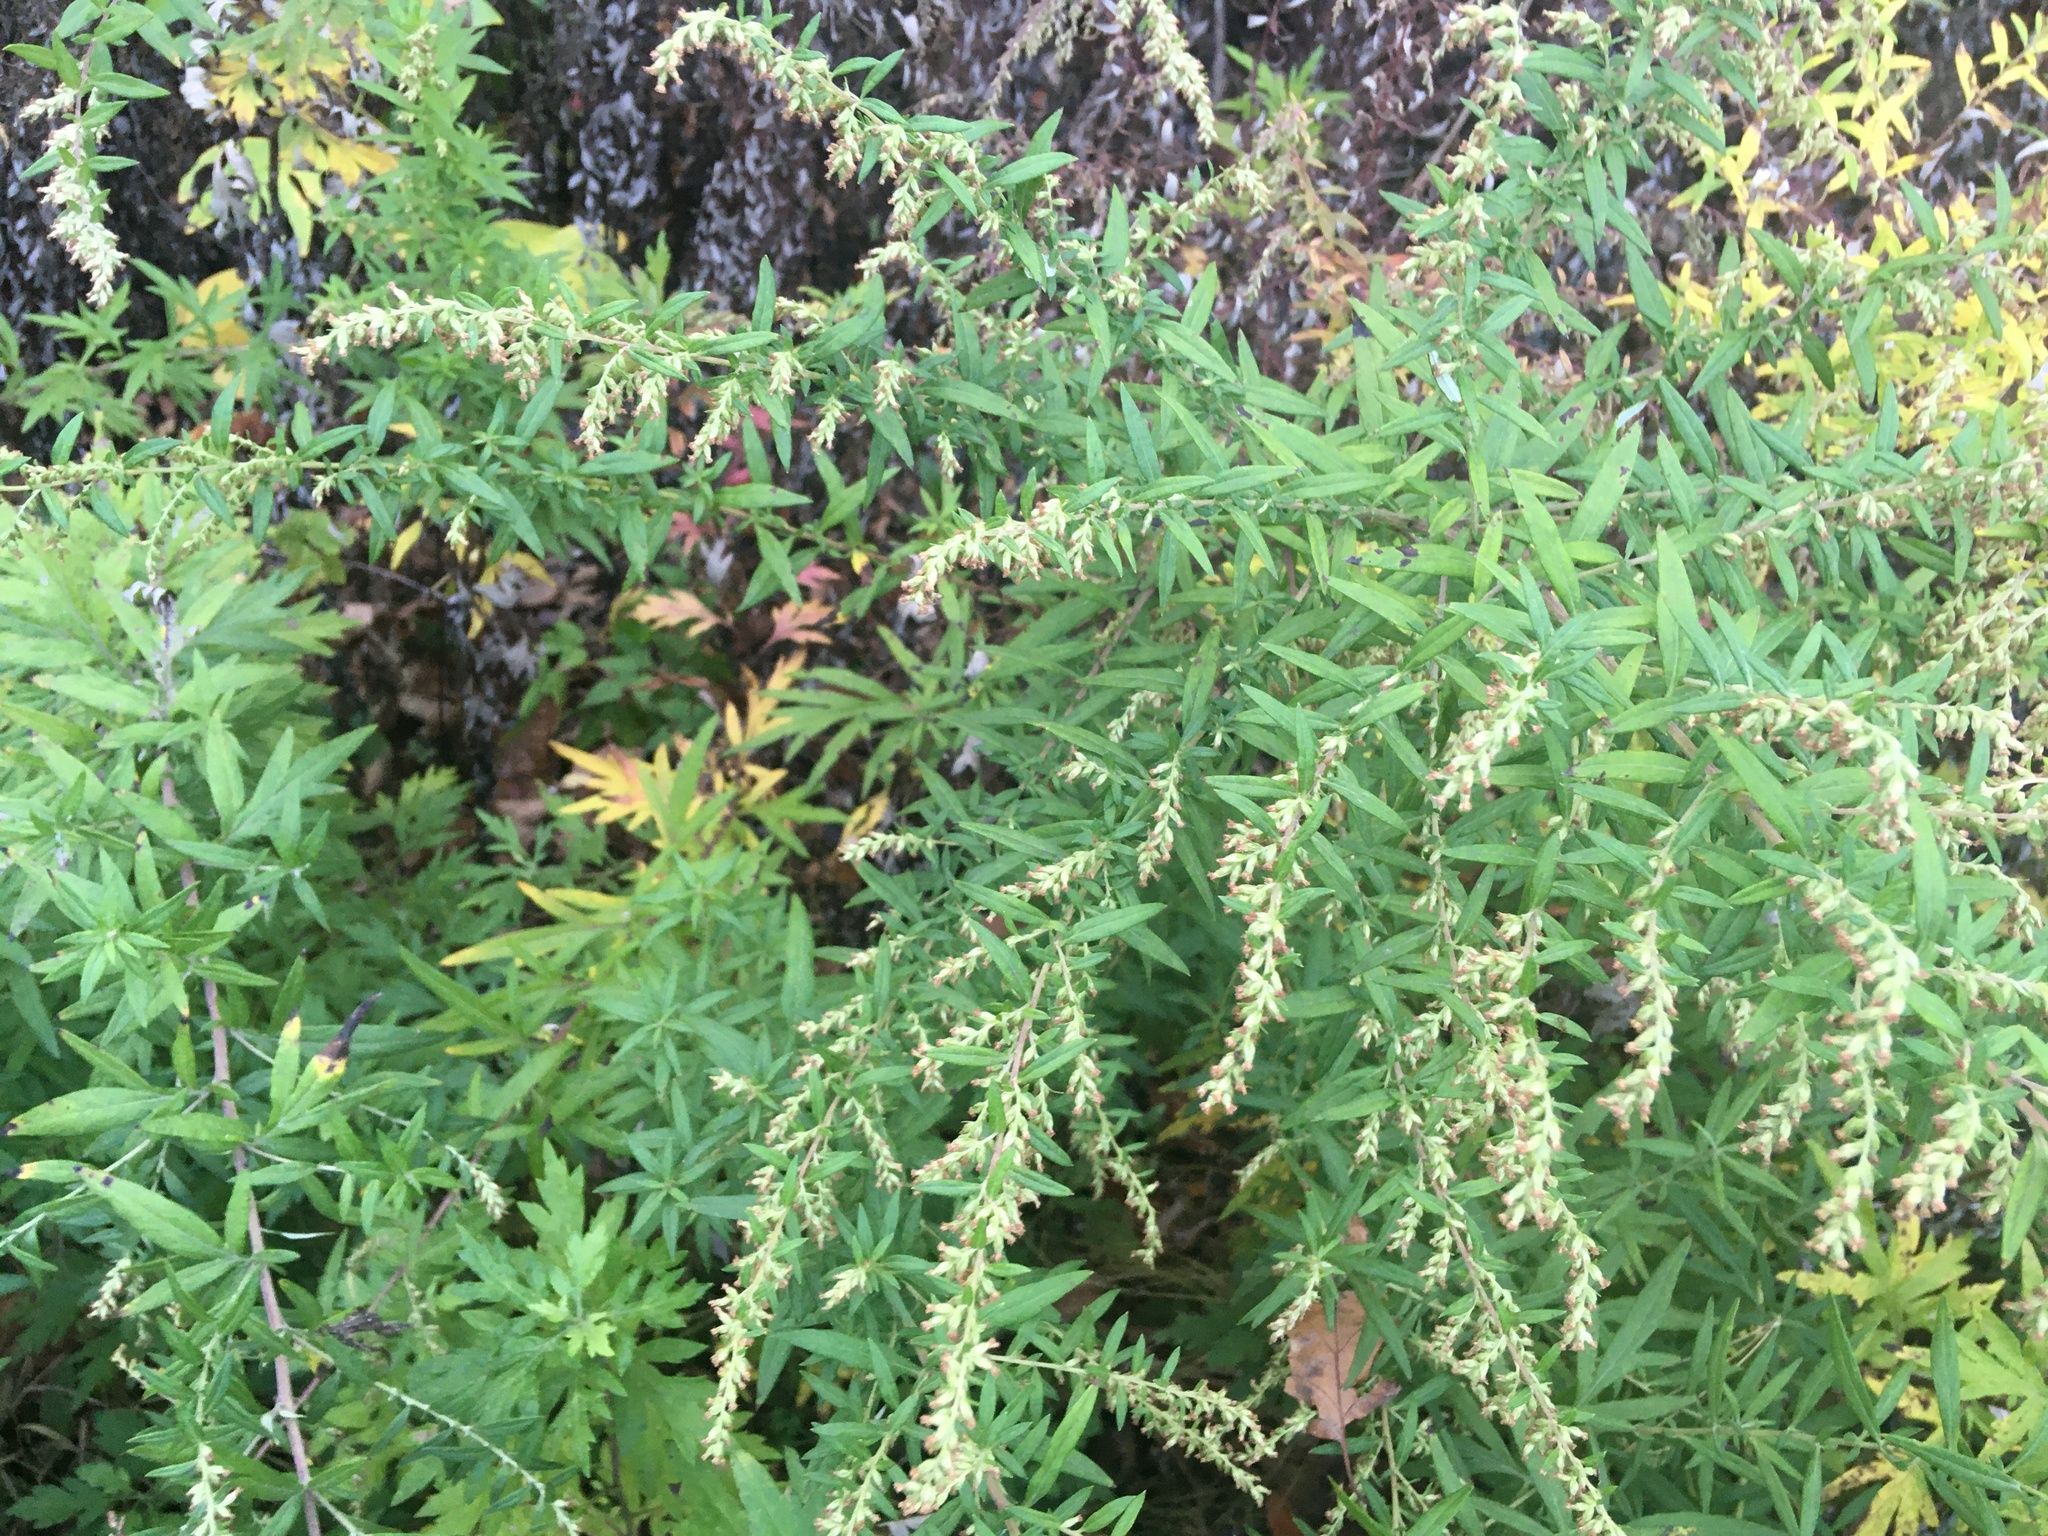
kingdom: Plantae
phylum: Tracheophyta
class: Magnoliopsida
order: Asterales
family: Asteraceae
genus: Artemisia
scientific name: Artemisia vulgaris
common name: Mugwort
